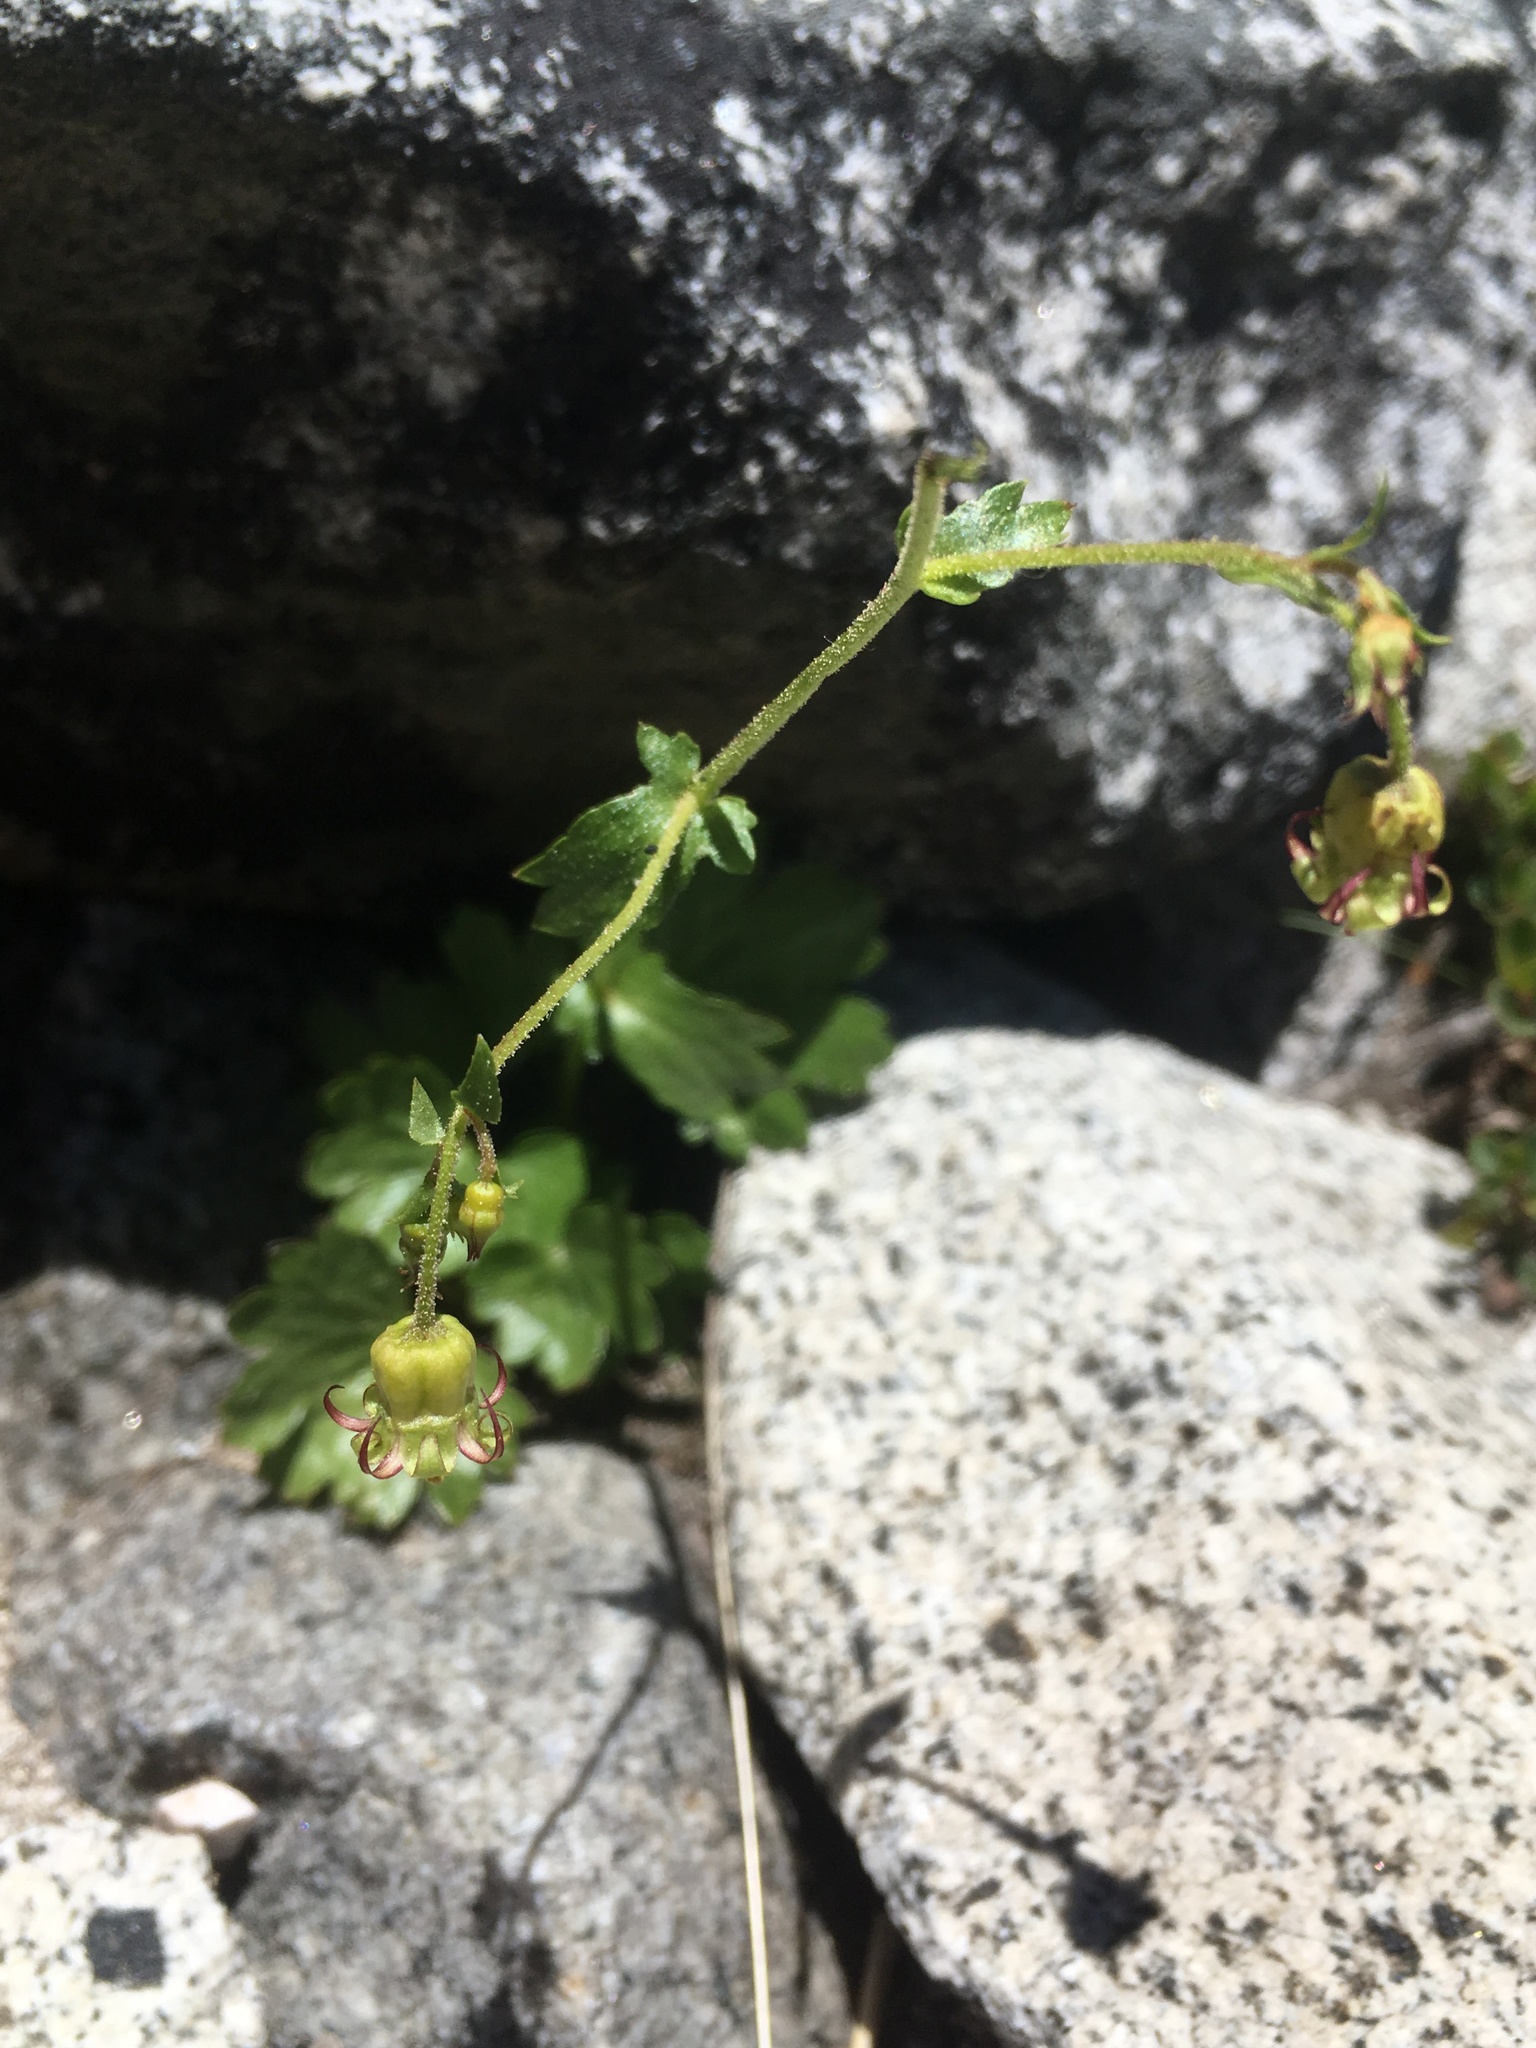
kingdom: Plantae
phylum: Tracheophyta
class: Magnoliopsida
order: Saxifragales
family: Saxifragaceae
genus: Bolandra
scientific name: Bolandra californica
